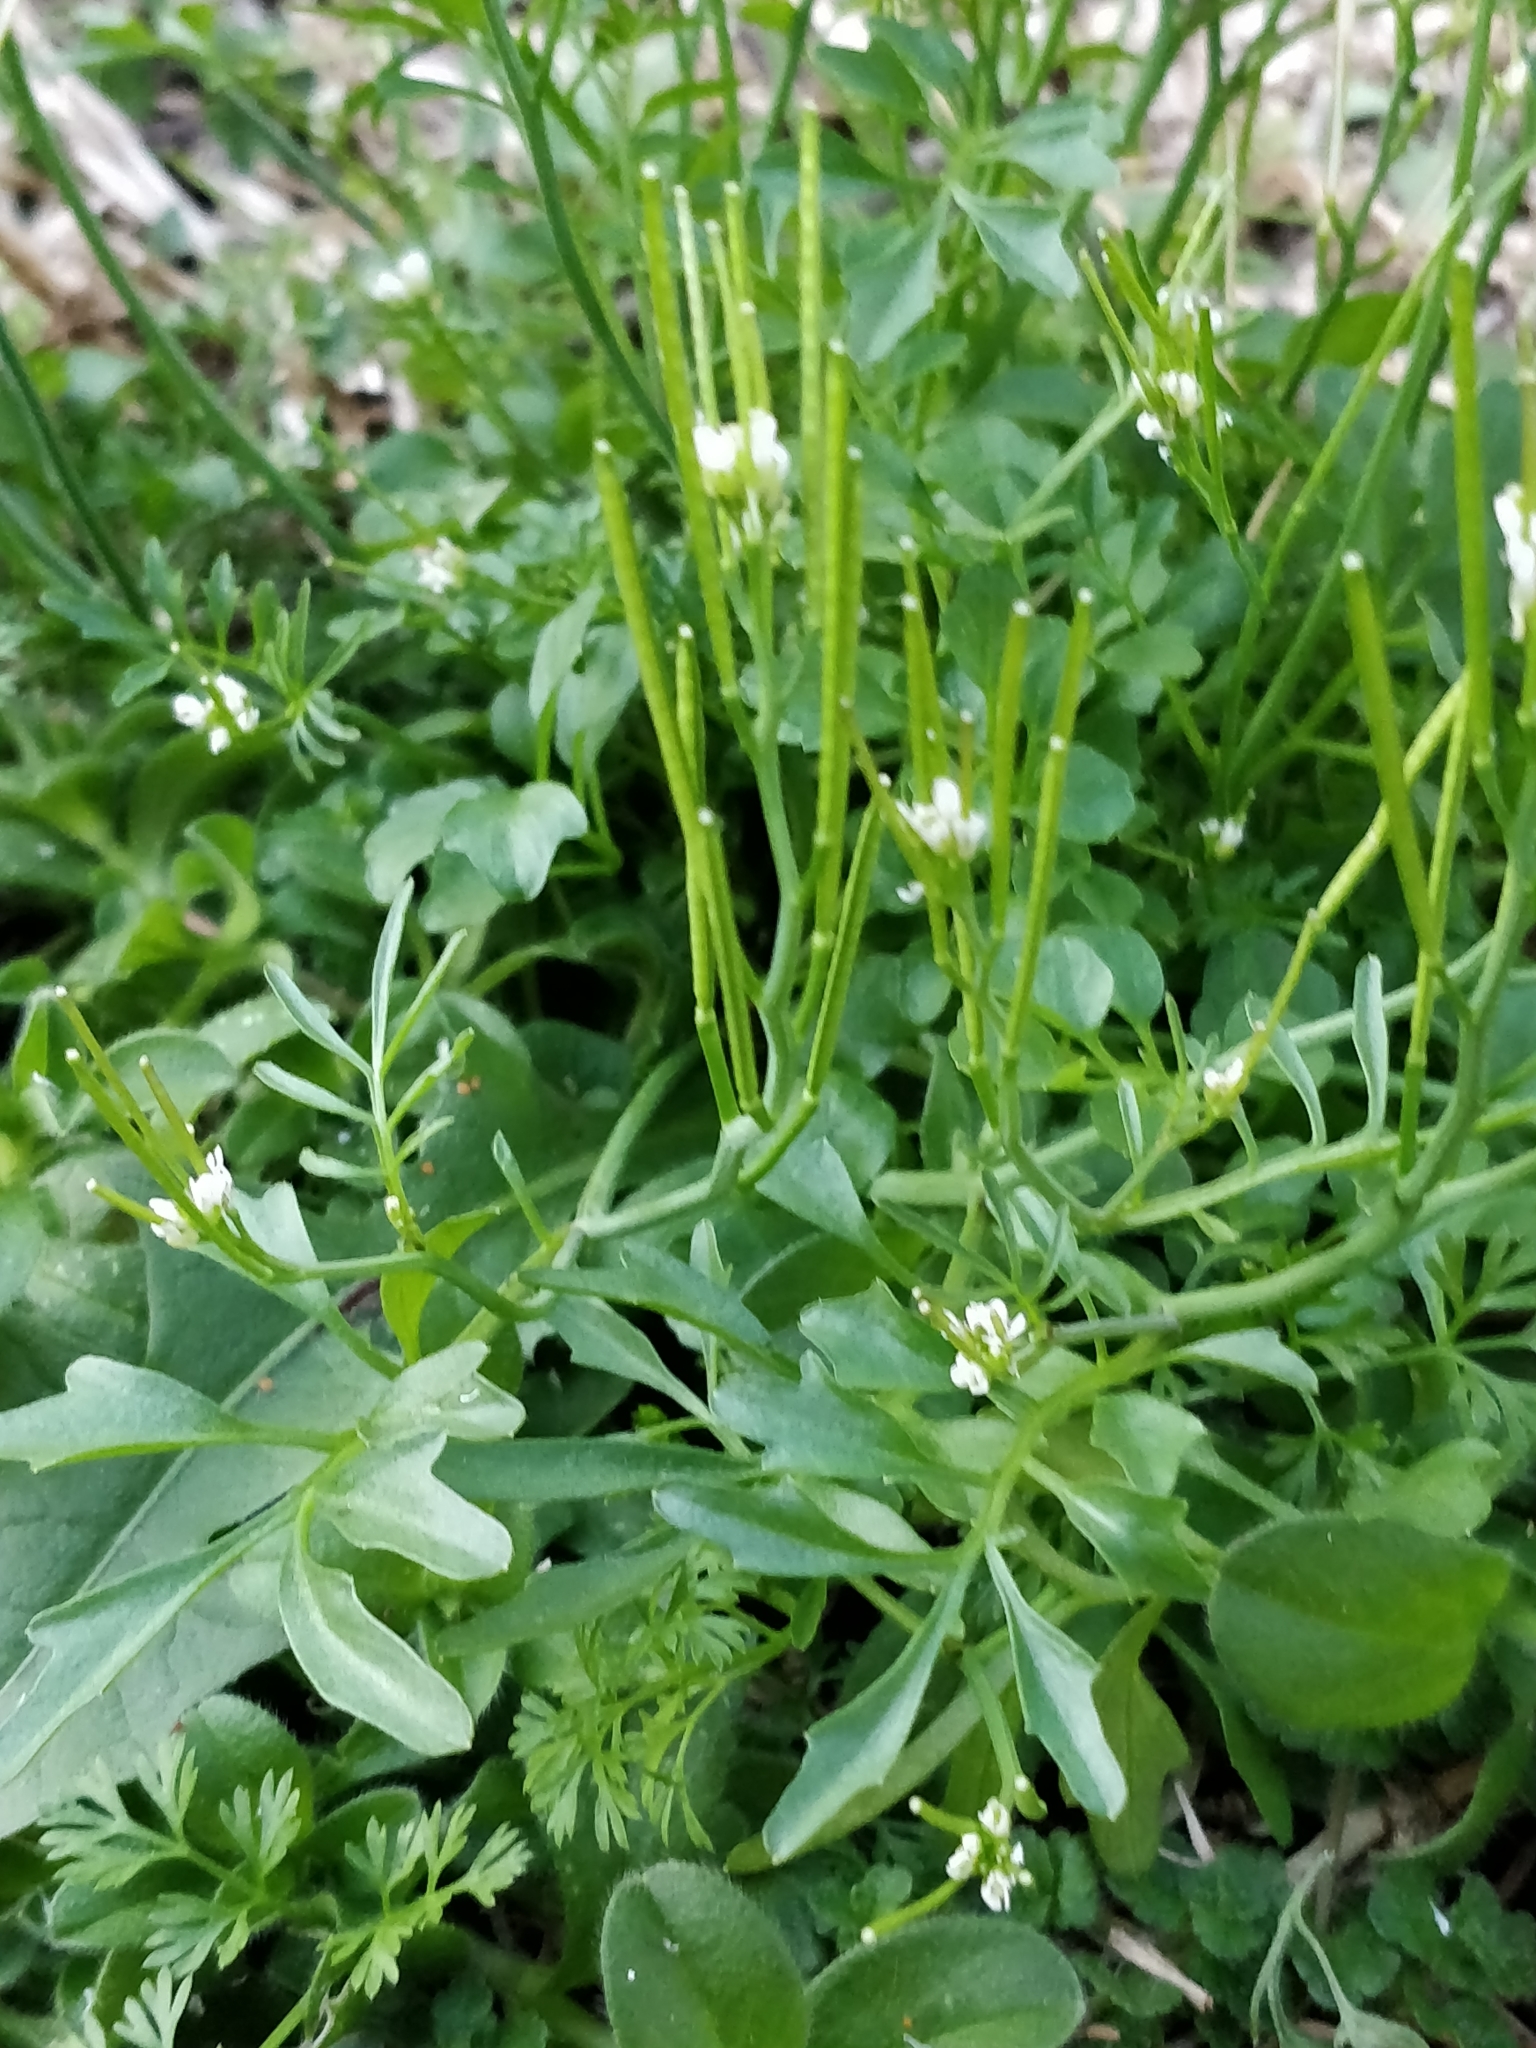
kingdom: Plantae
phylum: Tracheophyta
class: Magnoliopsida
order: Brassicales
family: Brassicaceae
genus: Cardamine
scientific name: Cardamine hirsuta
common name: Hairy bittercress
